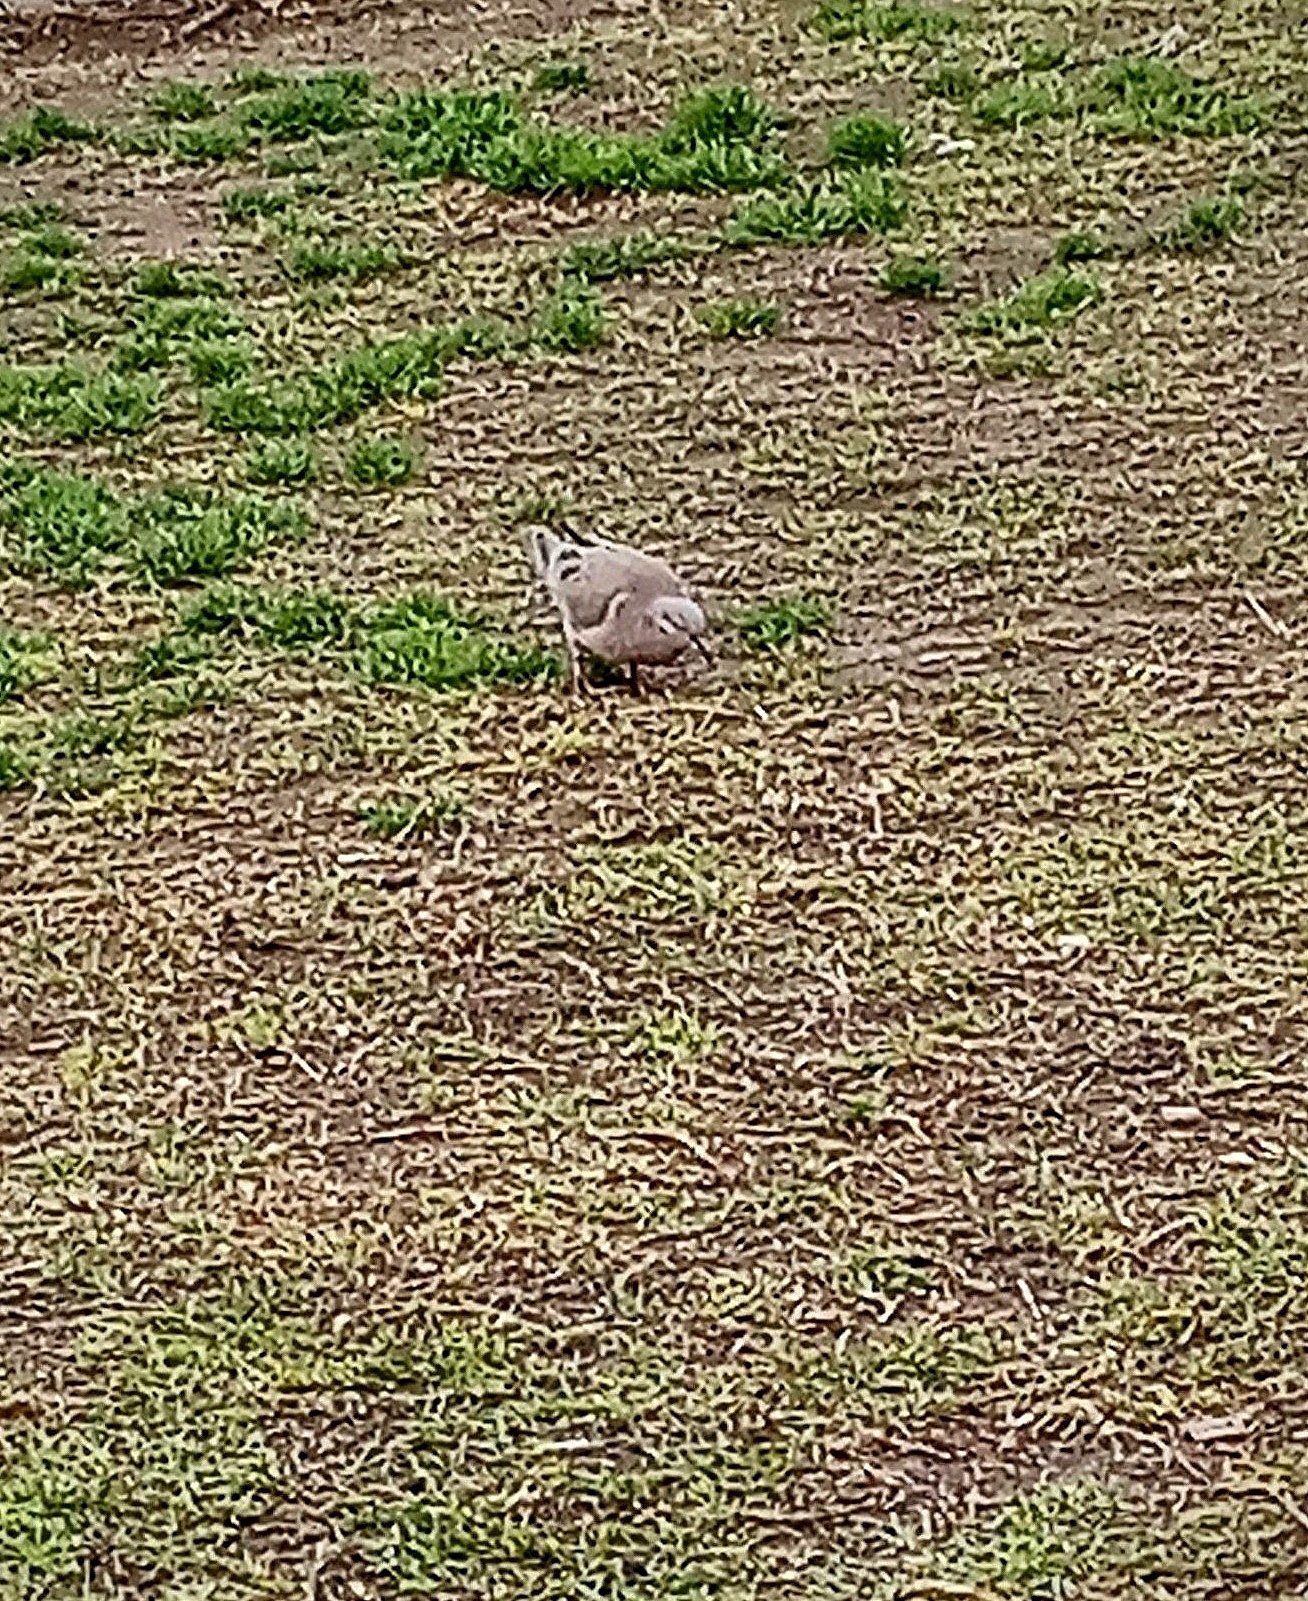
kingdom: Animalia
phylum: Chordata
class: Aves
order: Columbiformes
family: Columbidae
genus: Zenaida
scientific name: Zenaida auriculata
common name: Eared dove
